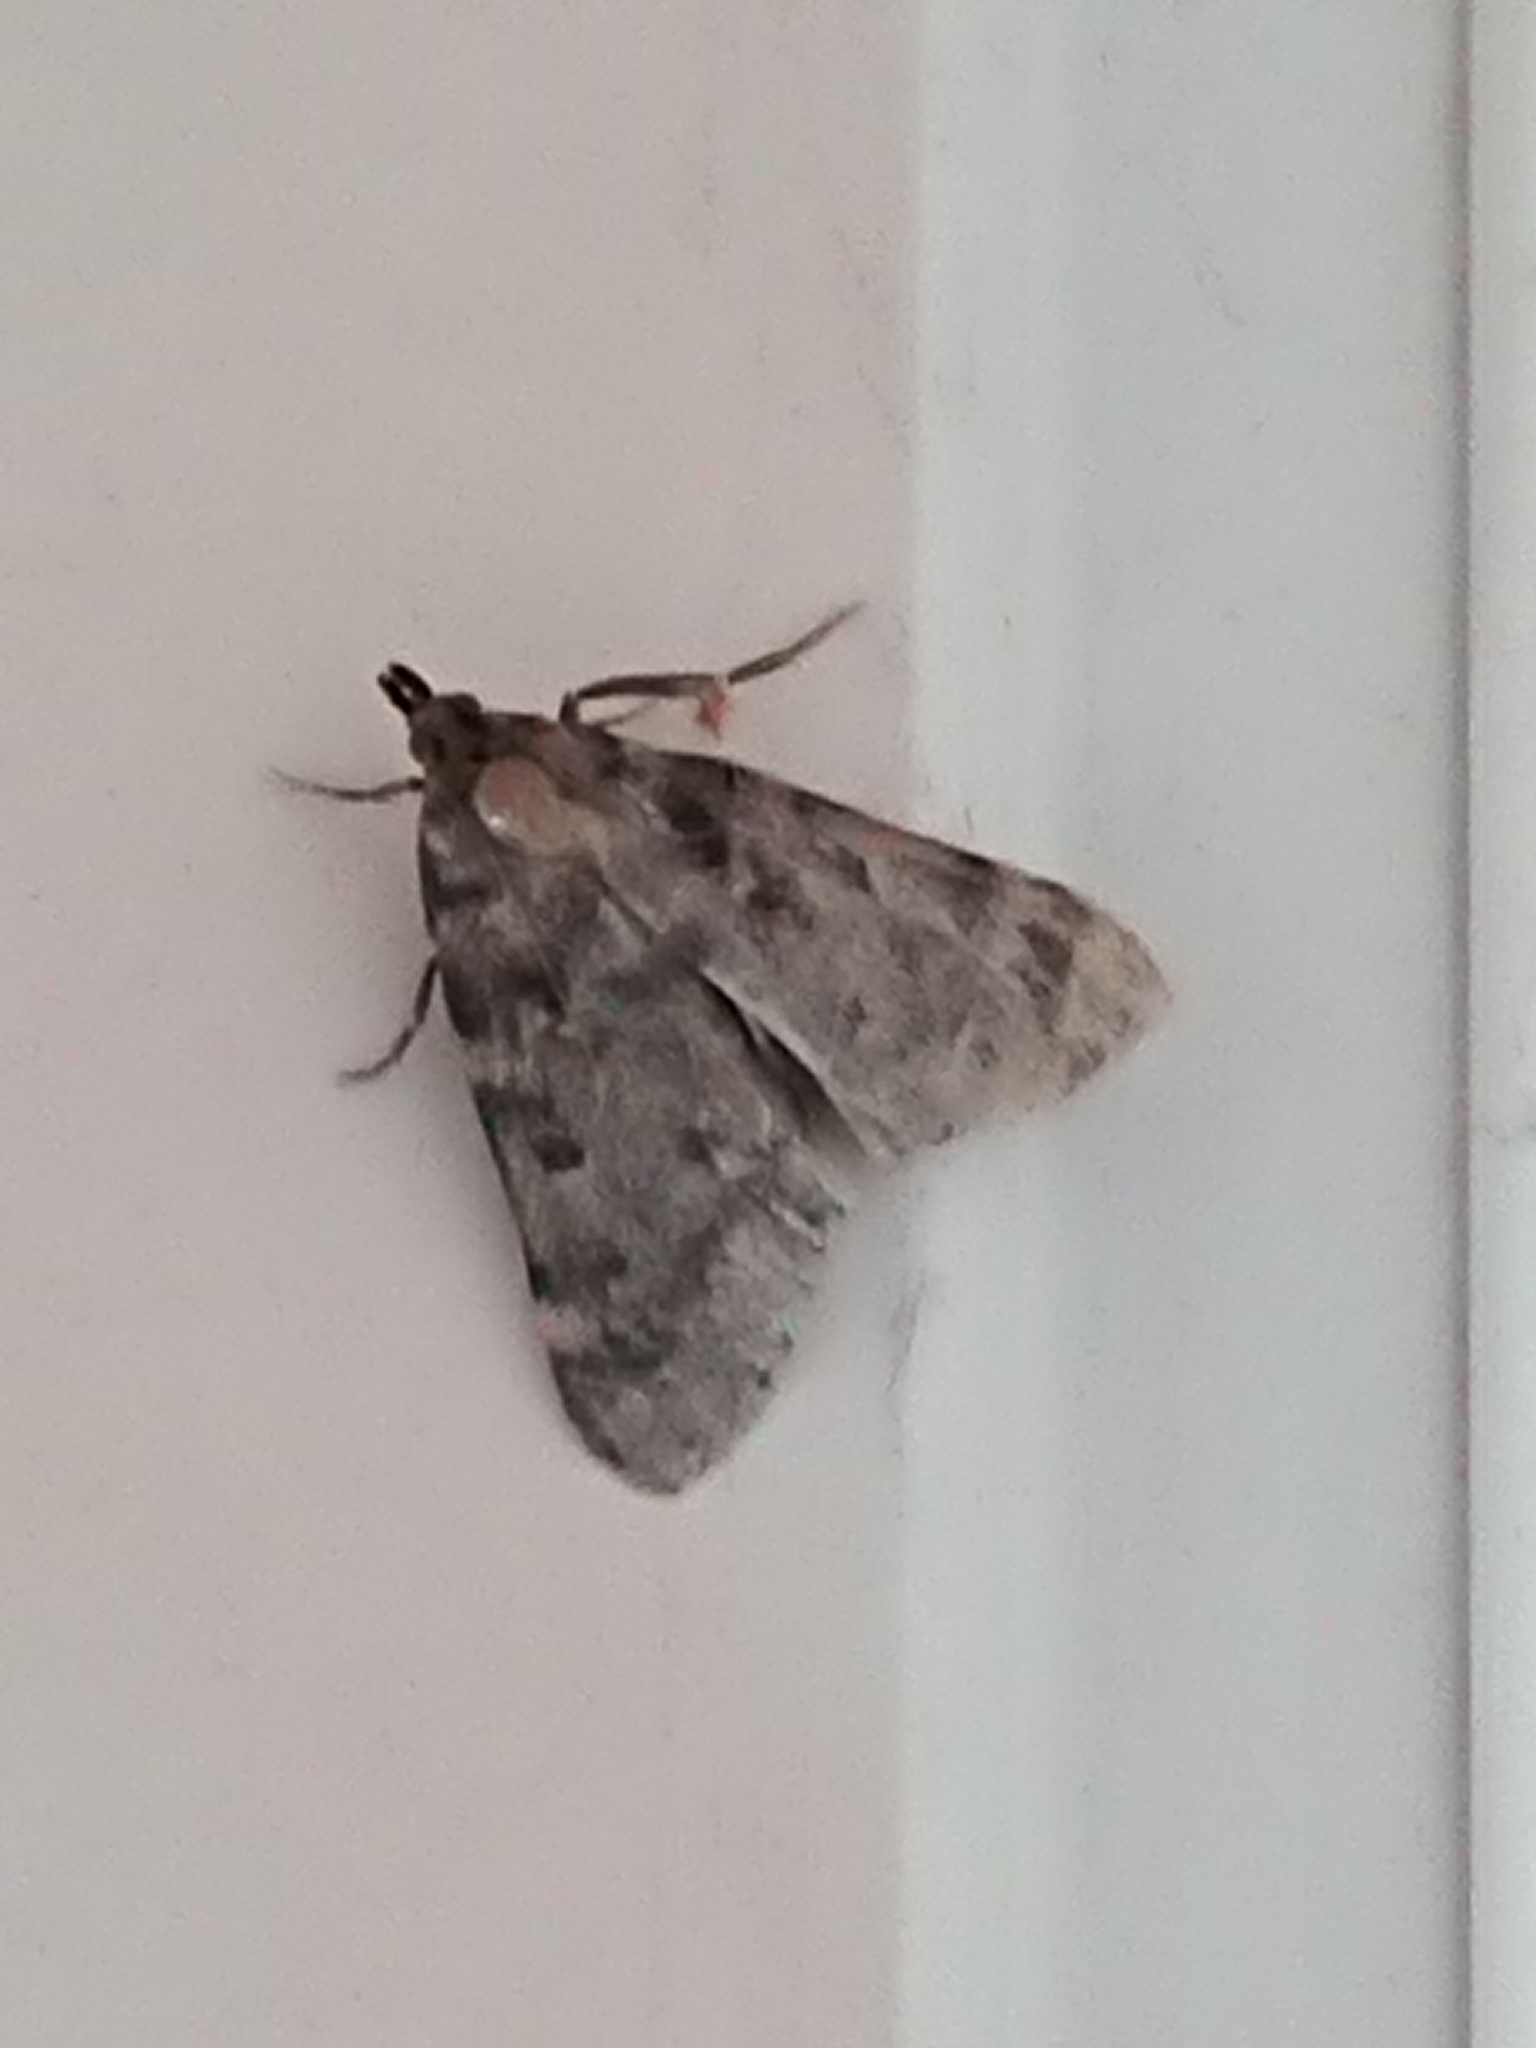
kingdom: Animalia
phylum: Arthropoda
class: Insecta
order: Lepidoptera
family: Pyralidae
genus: Aglossa
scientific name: Aglossa pinguinalis
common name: Large tabby
